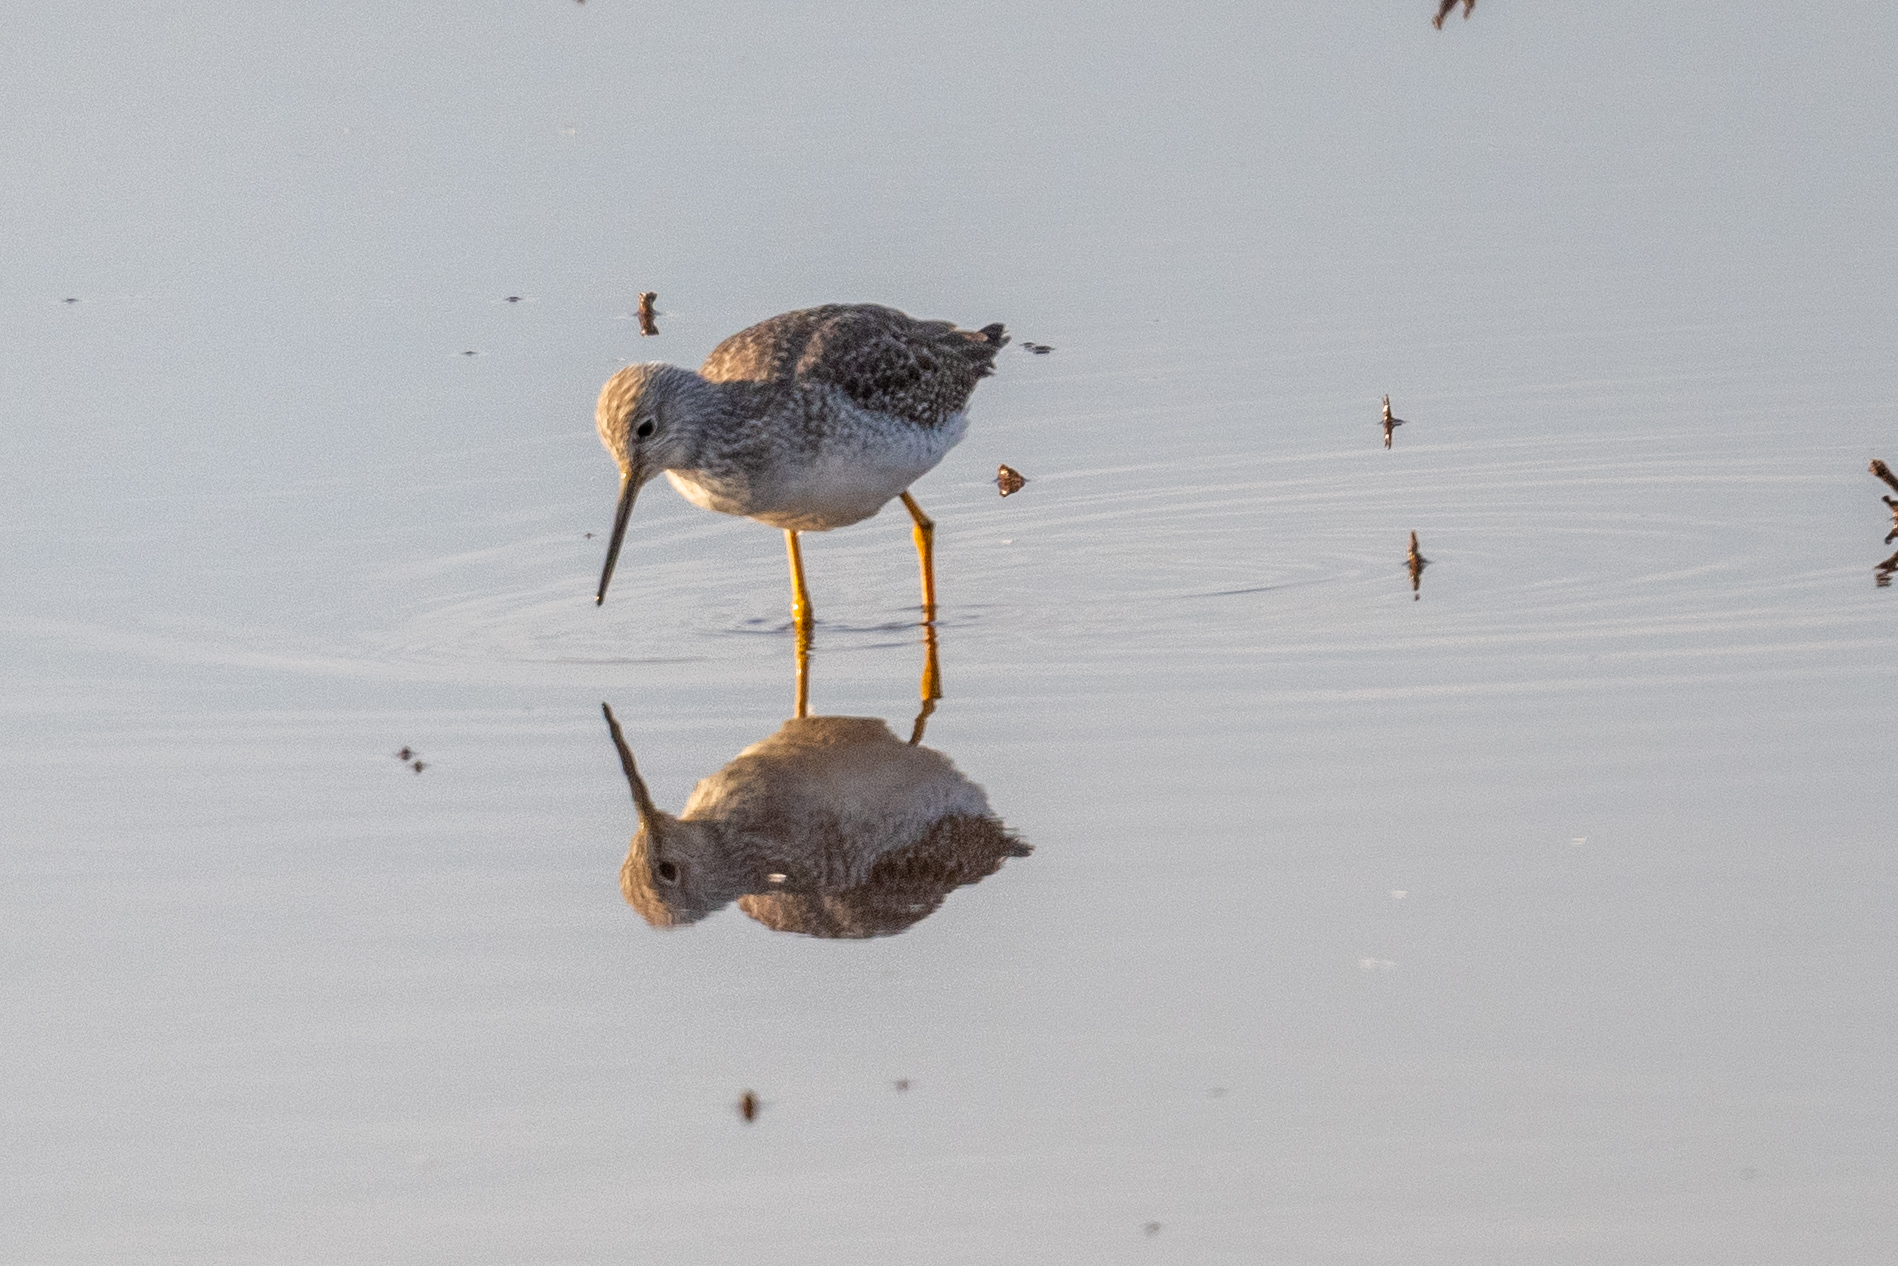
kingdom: Animalia
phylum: Chordata
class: Aves
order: Charadriiformes
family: Scolopacidae
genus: Tringa
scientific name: Tringa melanoleuca
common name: Greater yellowlegs
